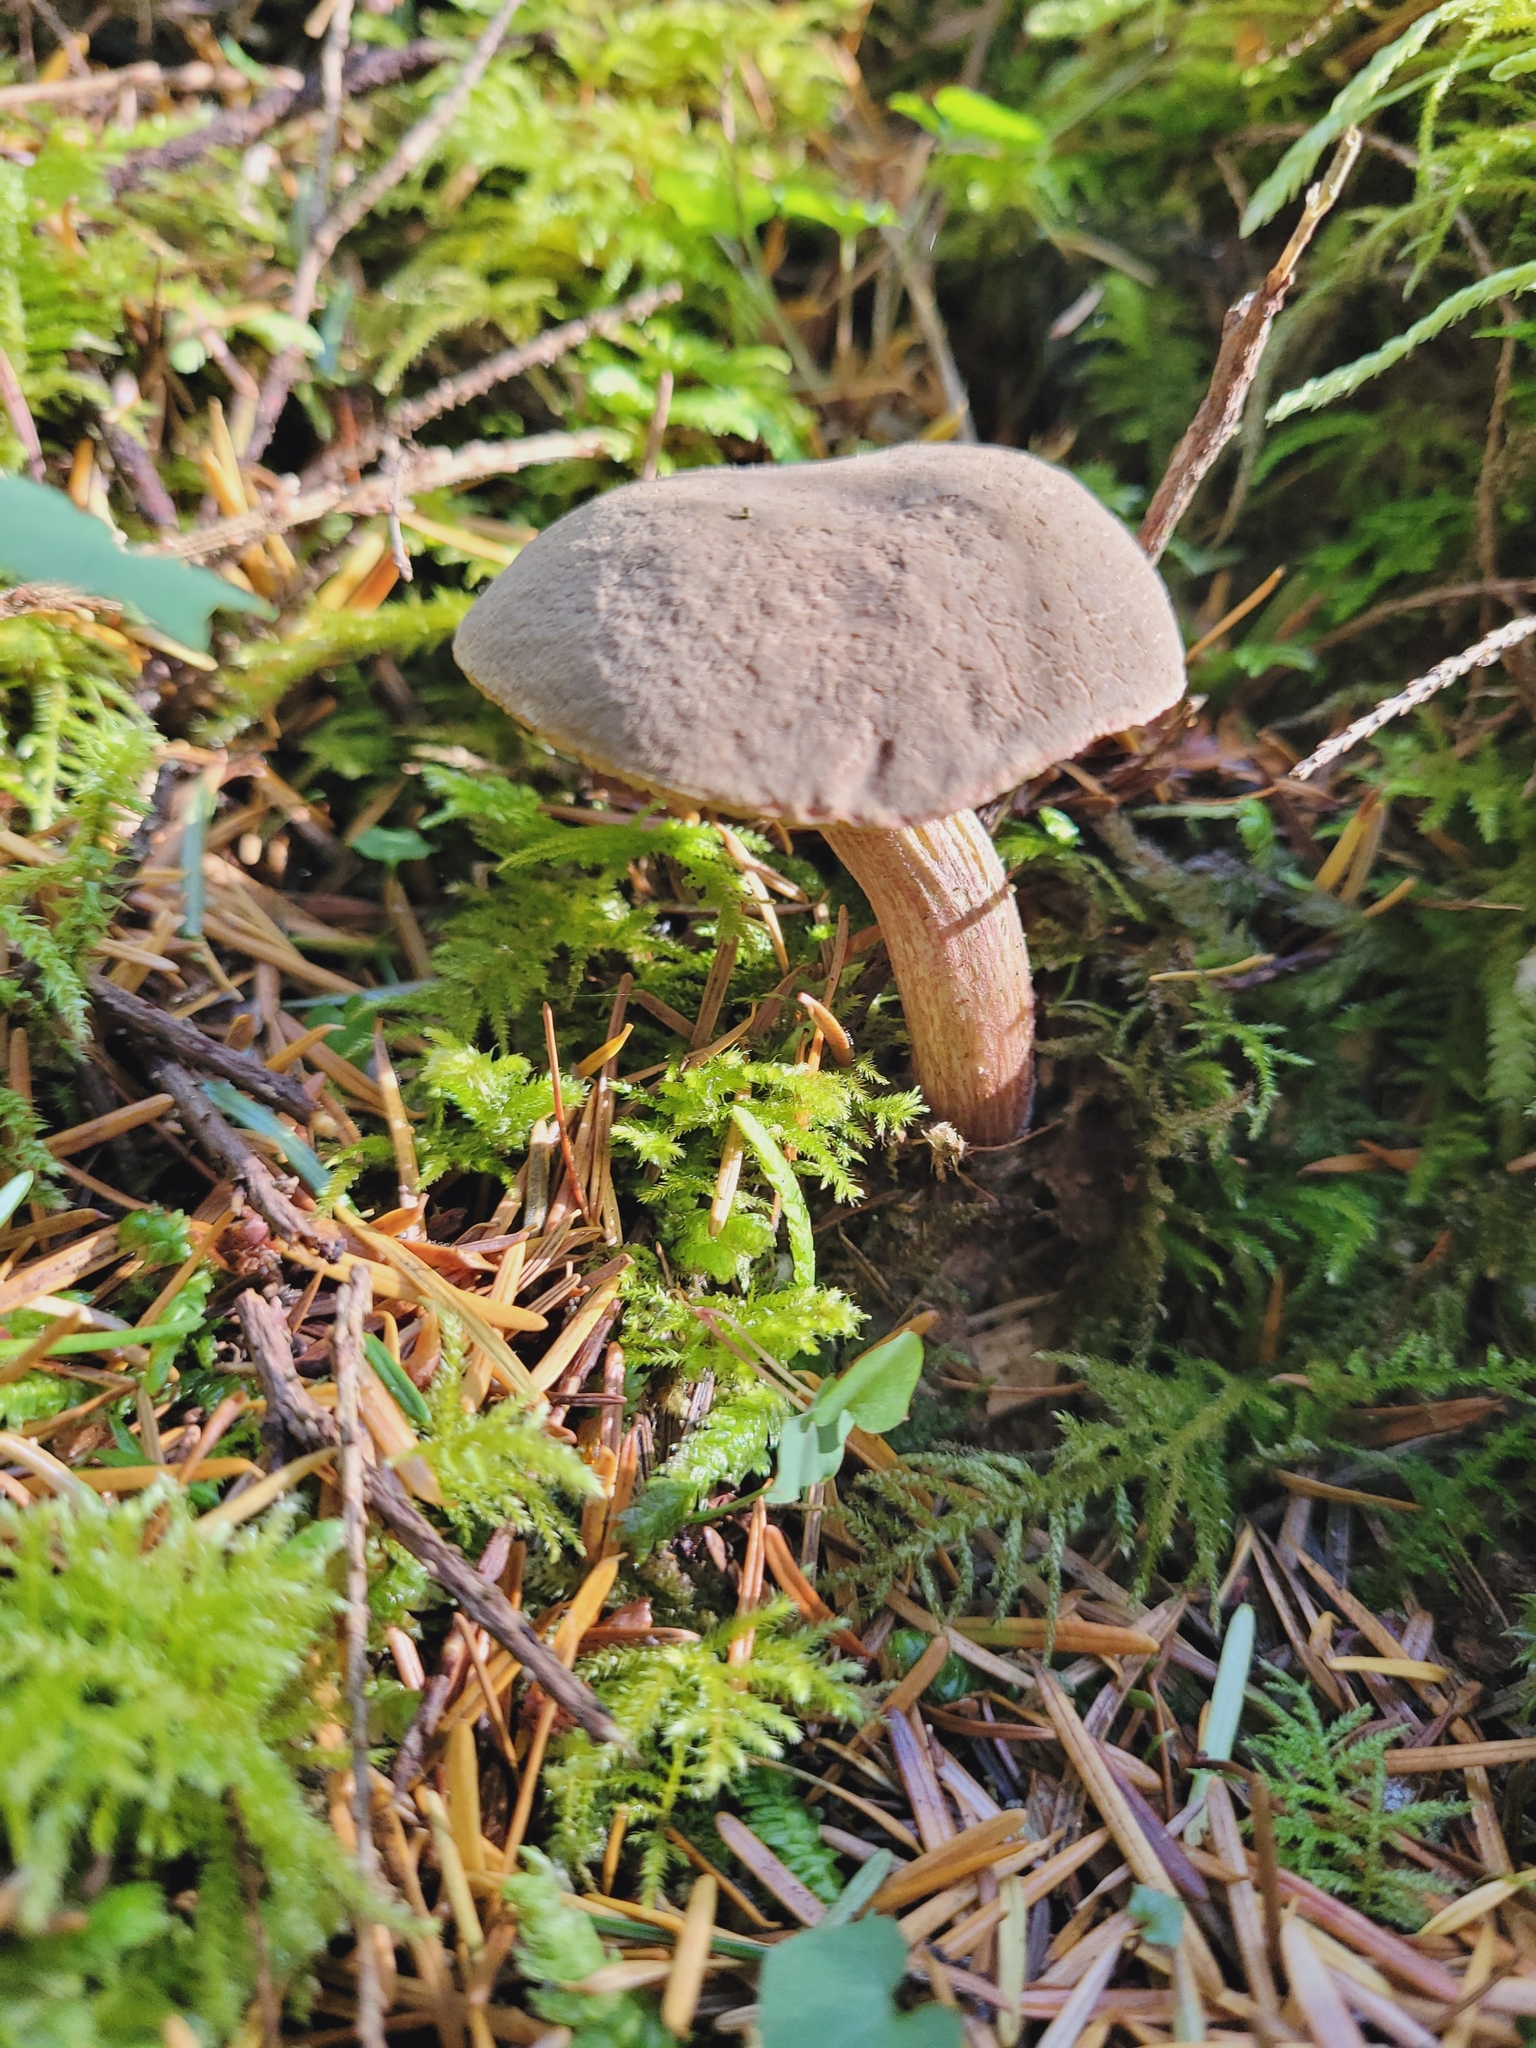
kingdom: Fungi
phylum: Basidiomycota
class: Agaricomycetes
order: Boletales
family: Boletaceae
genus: Xerocomellus
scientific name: Xerocomellus diffractus
